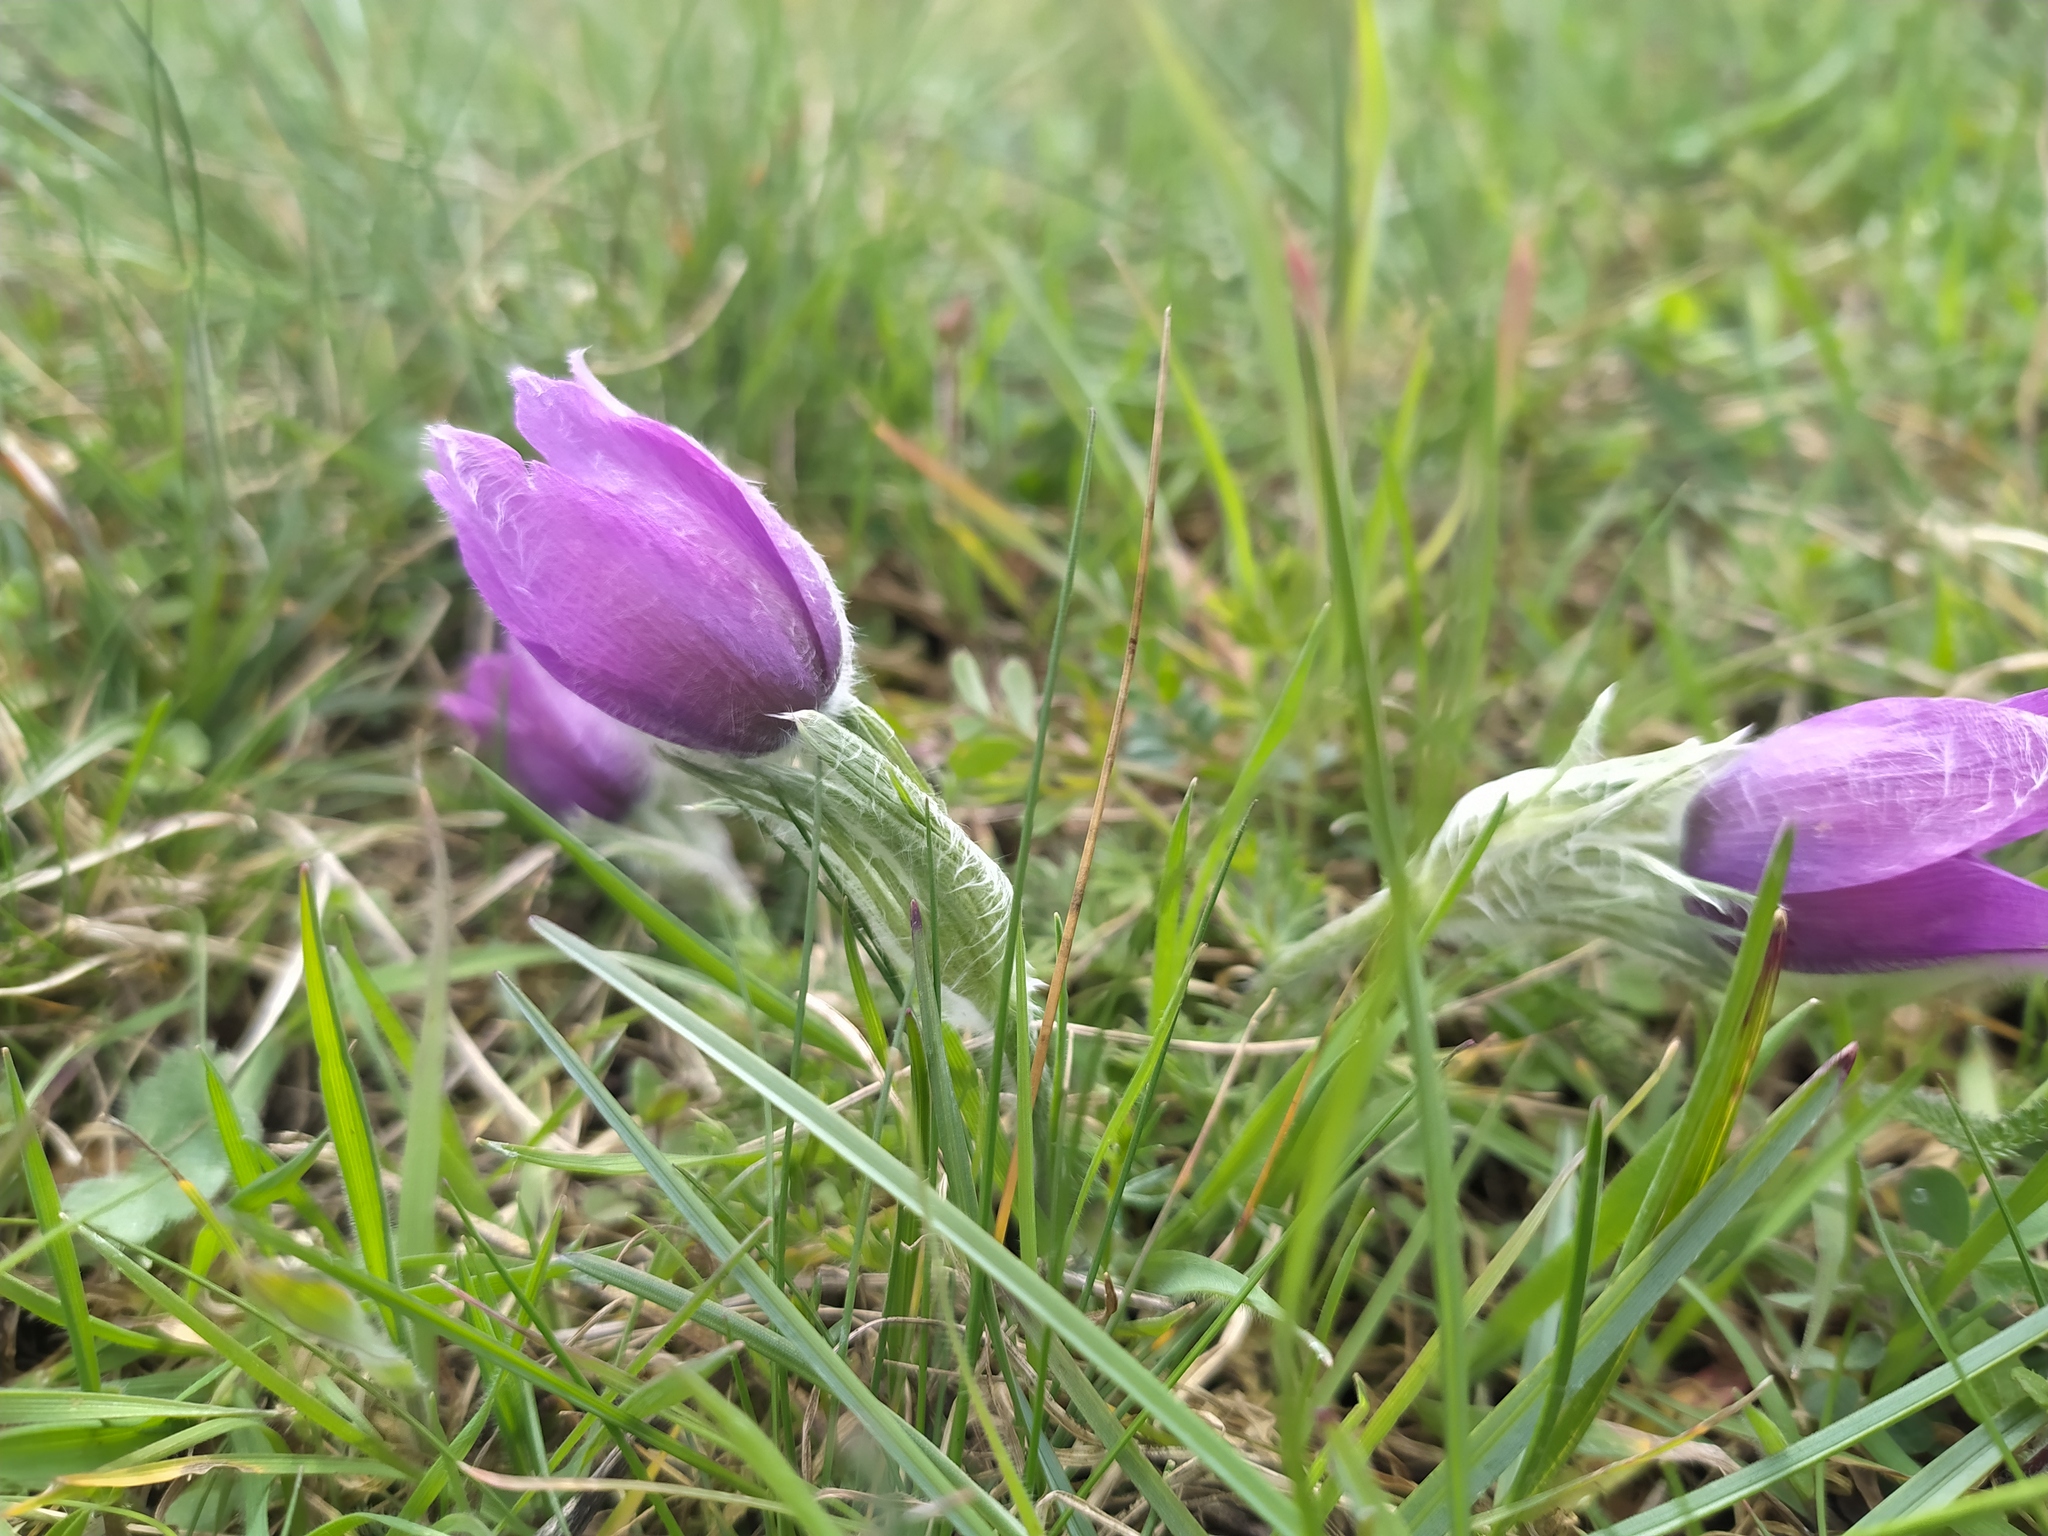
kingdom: Plantae
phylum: Tracheophyta
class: Magnoliopsida
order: Ranunculales
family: Ranunculaceae
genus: Pulsatilla
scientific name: Pulsatilla vulgaris
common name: Pasqueflower
